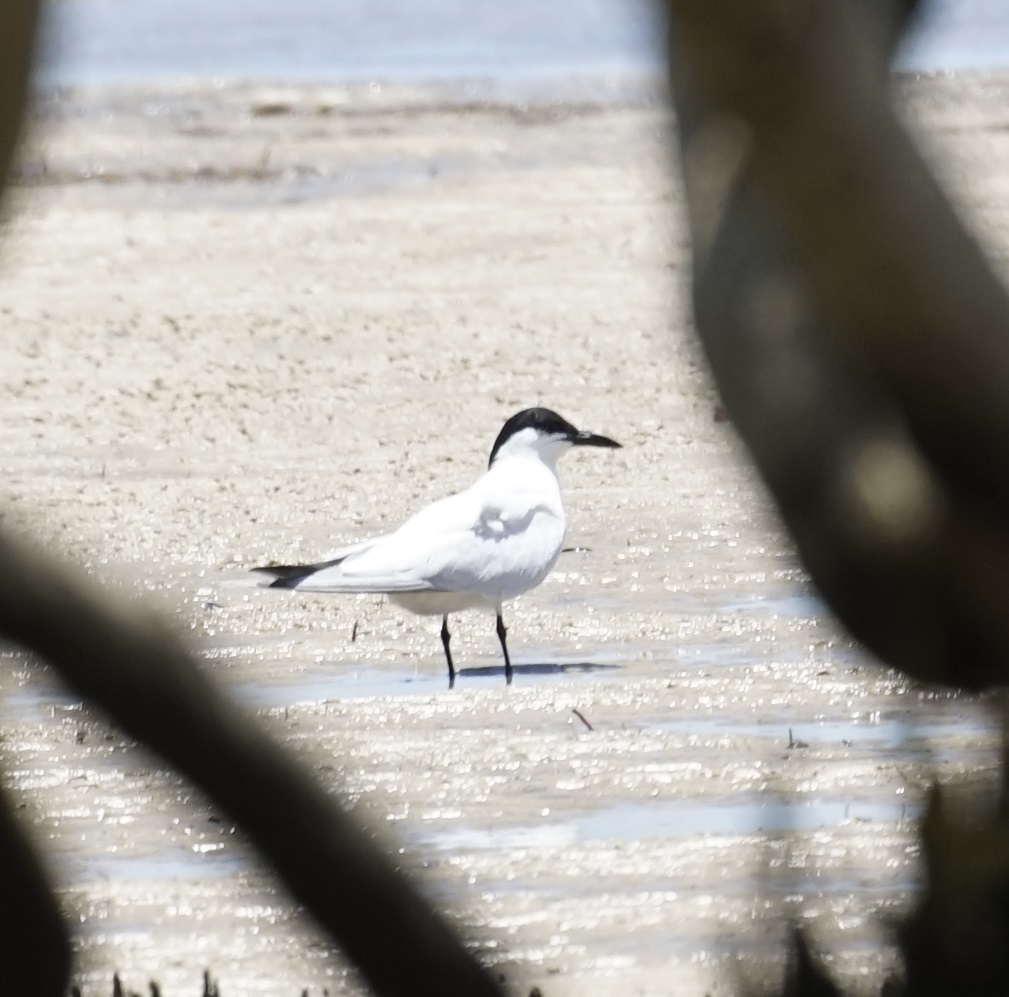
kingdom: Animalia
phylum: Chordata
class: Aves
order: Charadriiformes
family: Laridae
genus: Gelochelidon
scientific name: Gelochelidon macrotarsa
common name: Australian tern
